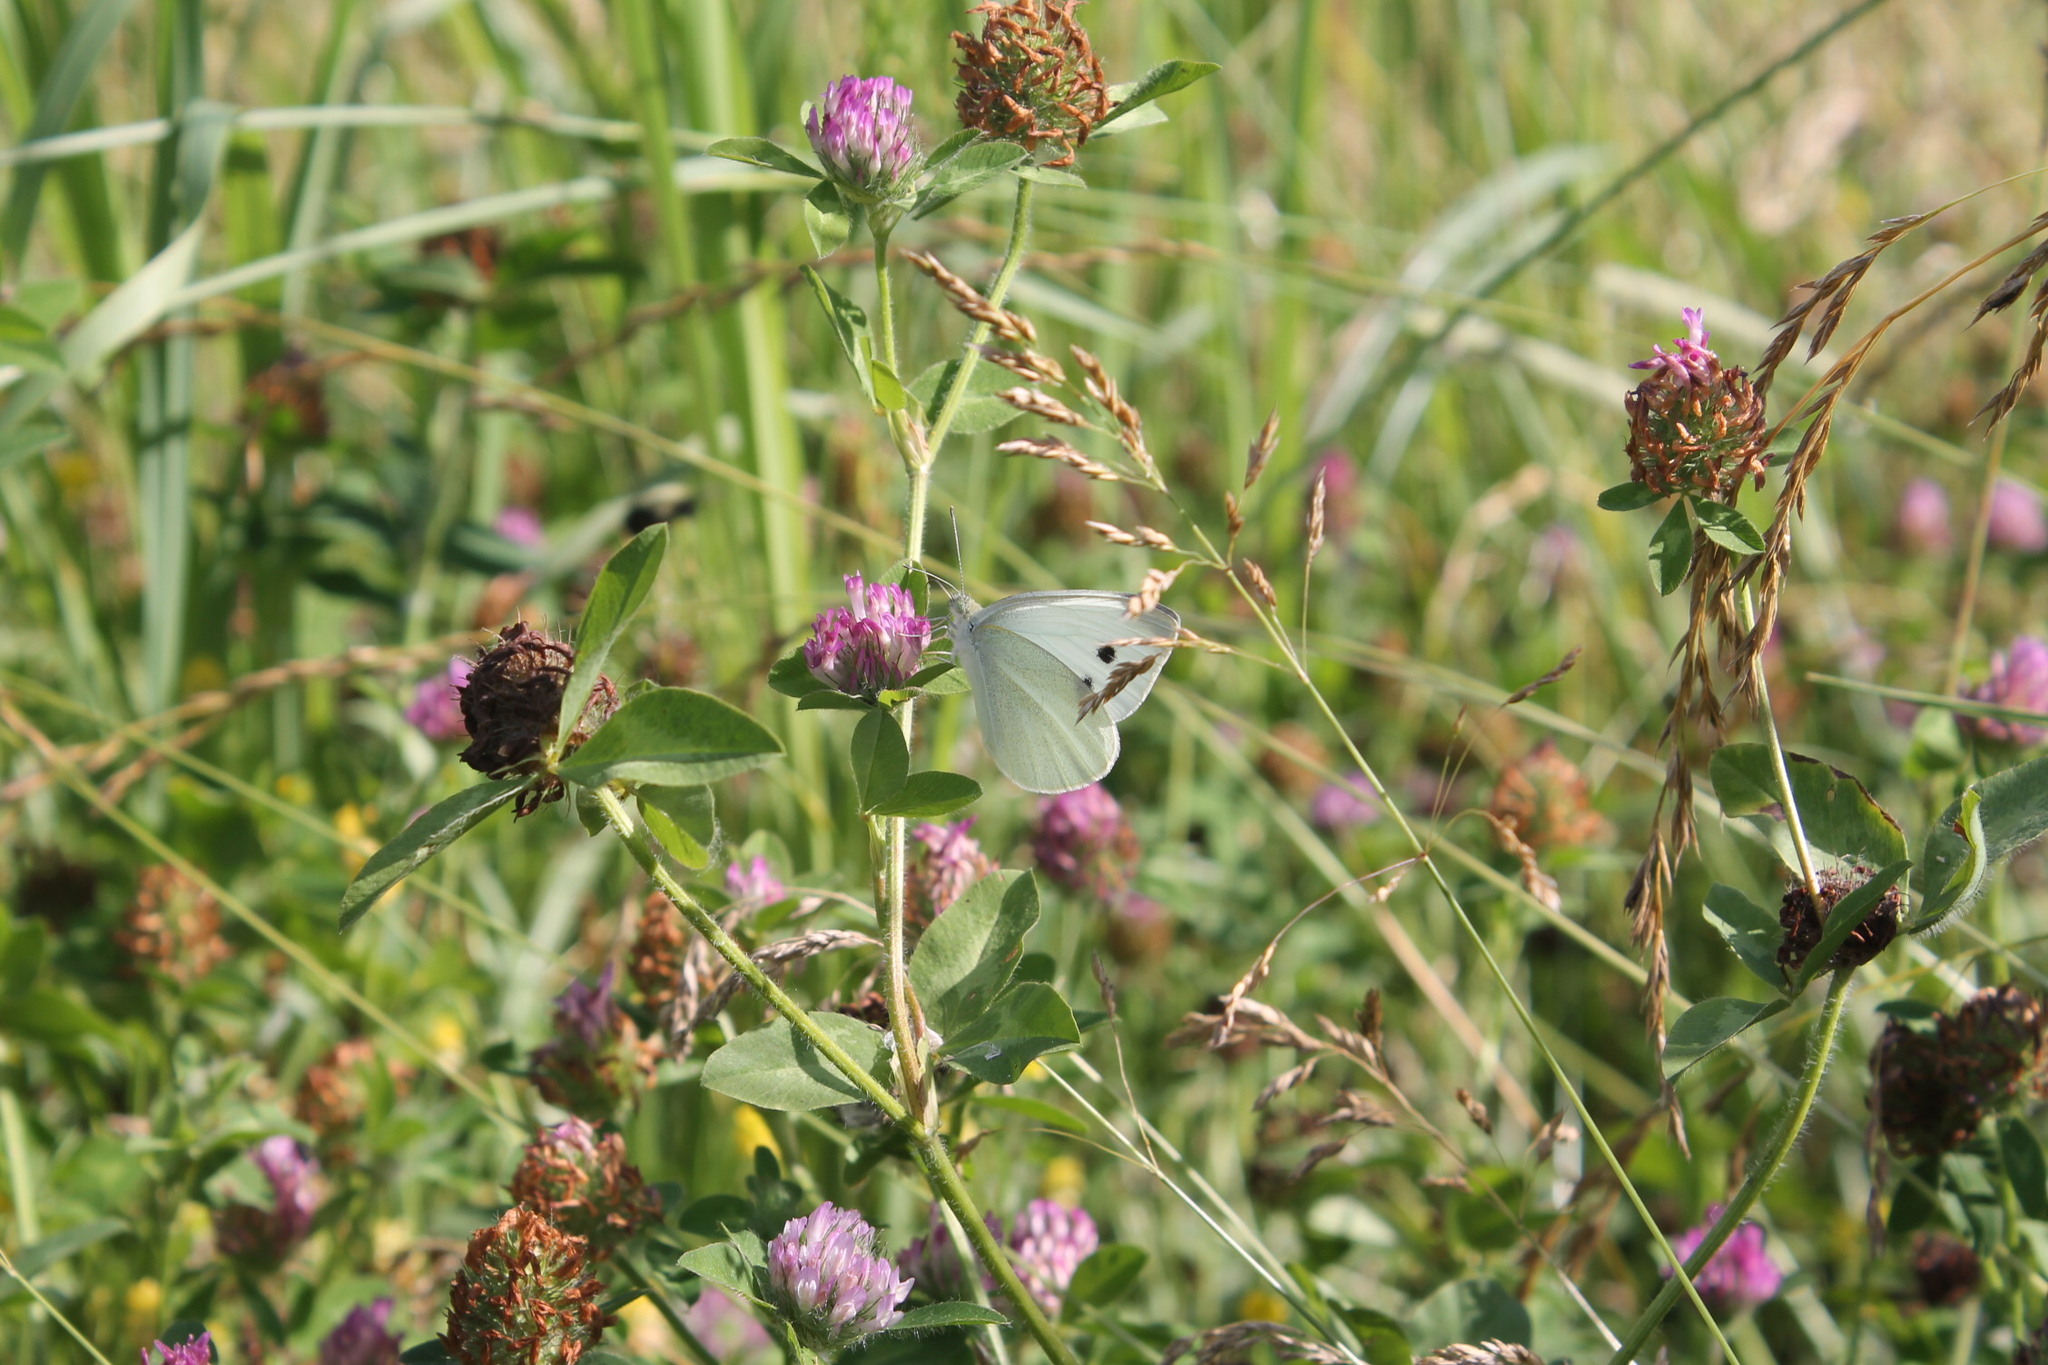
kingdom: Animalia
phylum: Arthropoda
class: Insecta
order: Lepidoptera
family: Pieridae
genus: Pieris
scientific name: Pieris rapae
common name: Small white
